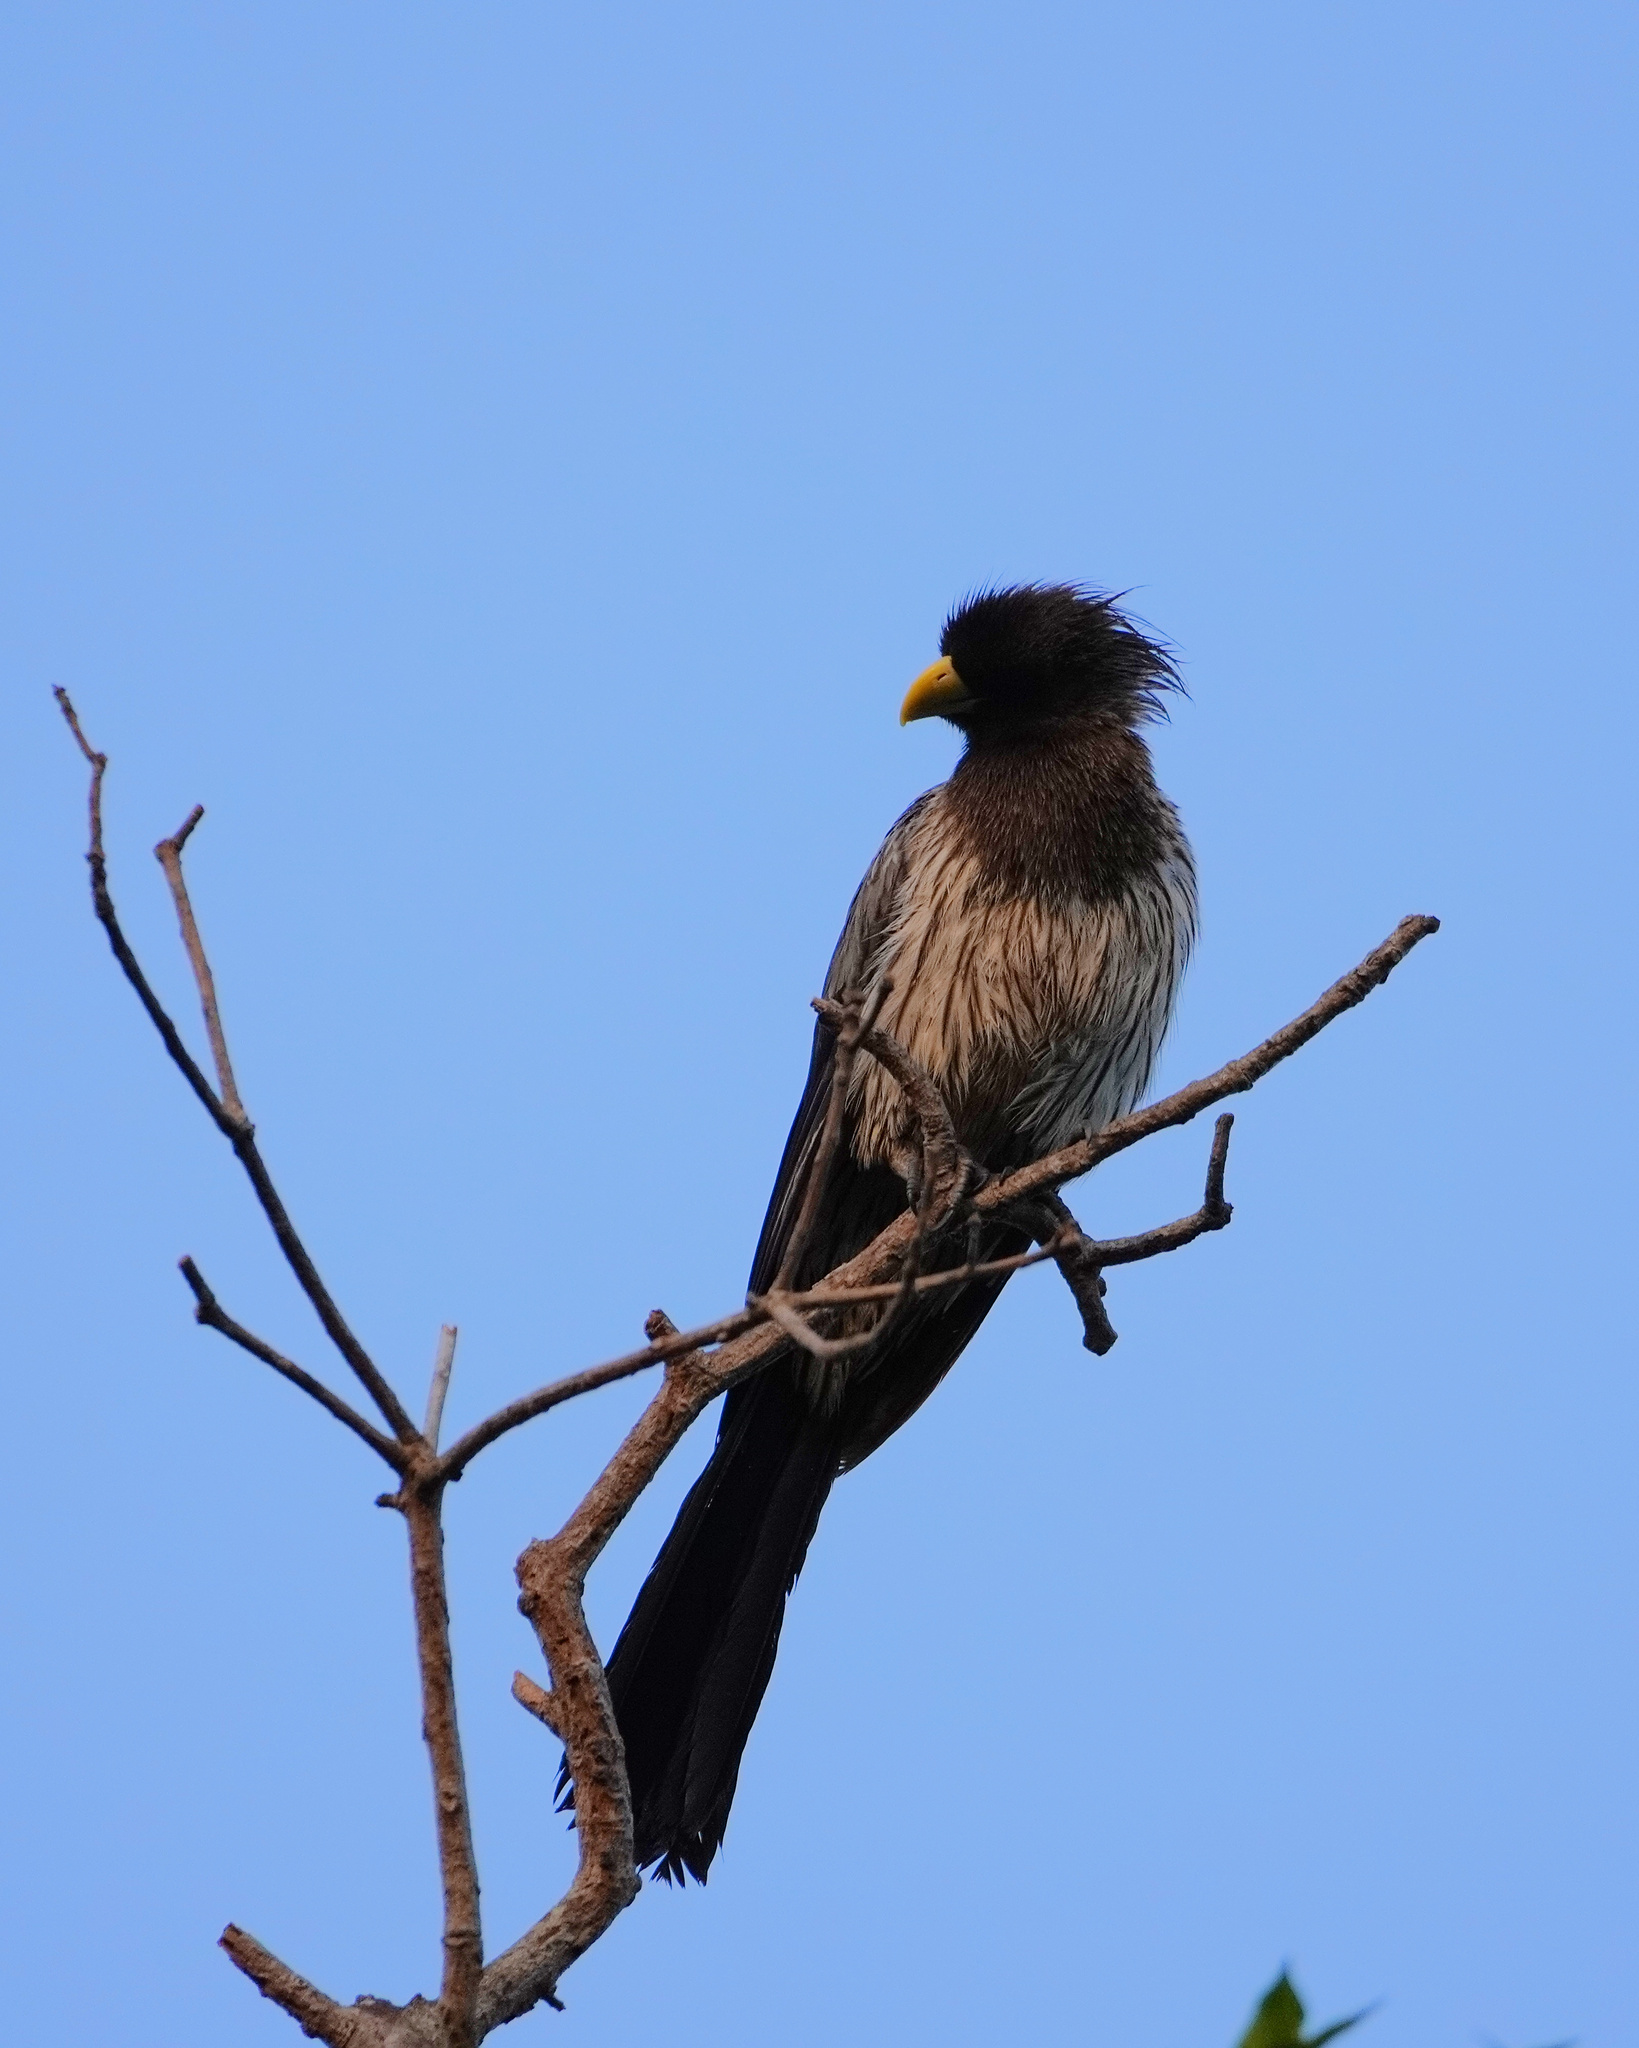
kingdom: Animalia
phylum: Chordata
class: Aves
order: Musophagiformes
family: Musophagidae
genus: Crinifer
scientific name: Crinifer piscator
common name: Western plantain-eater
